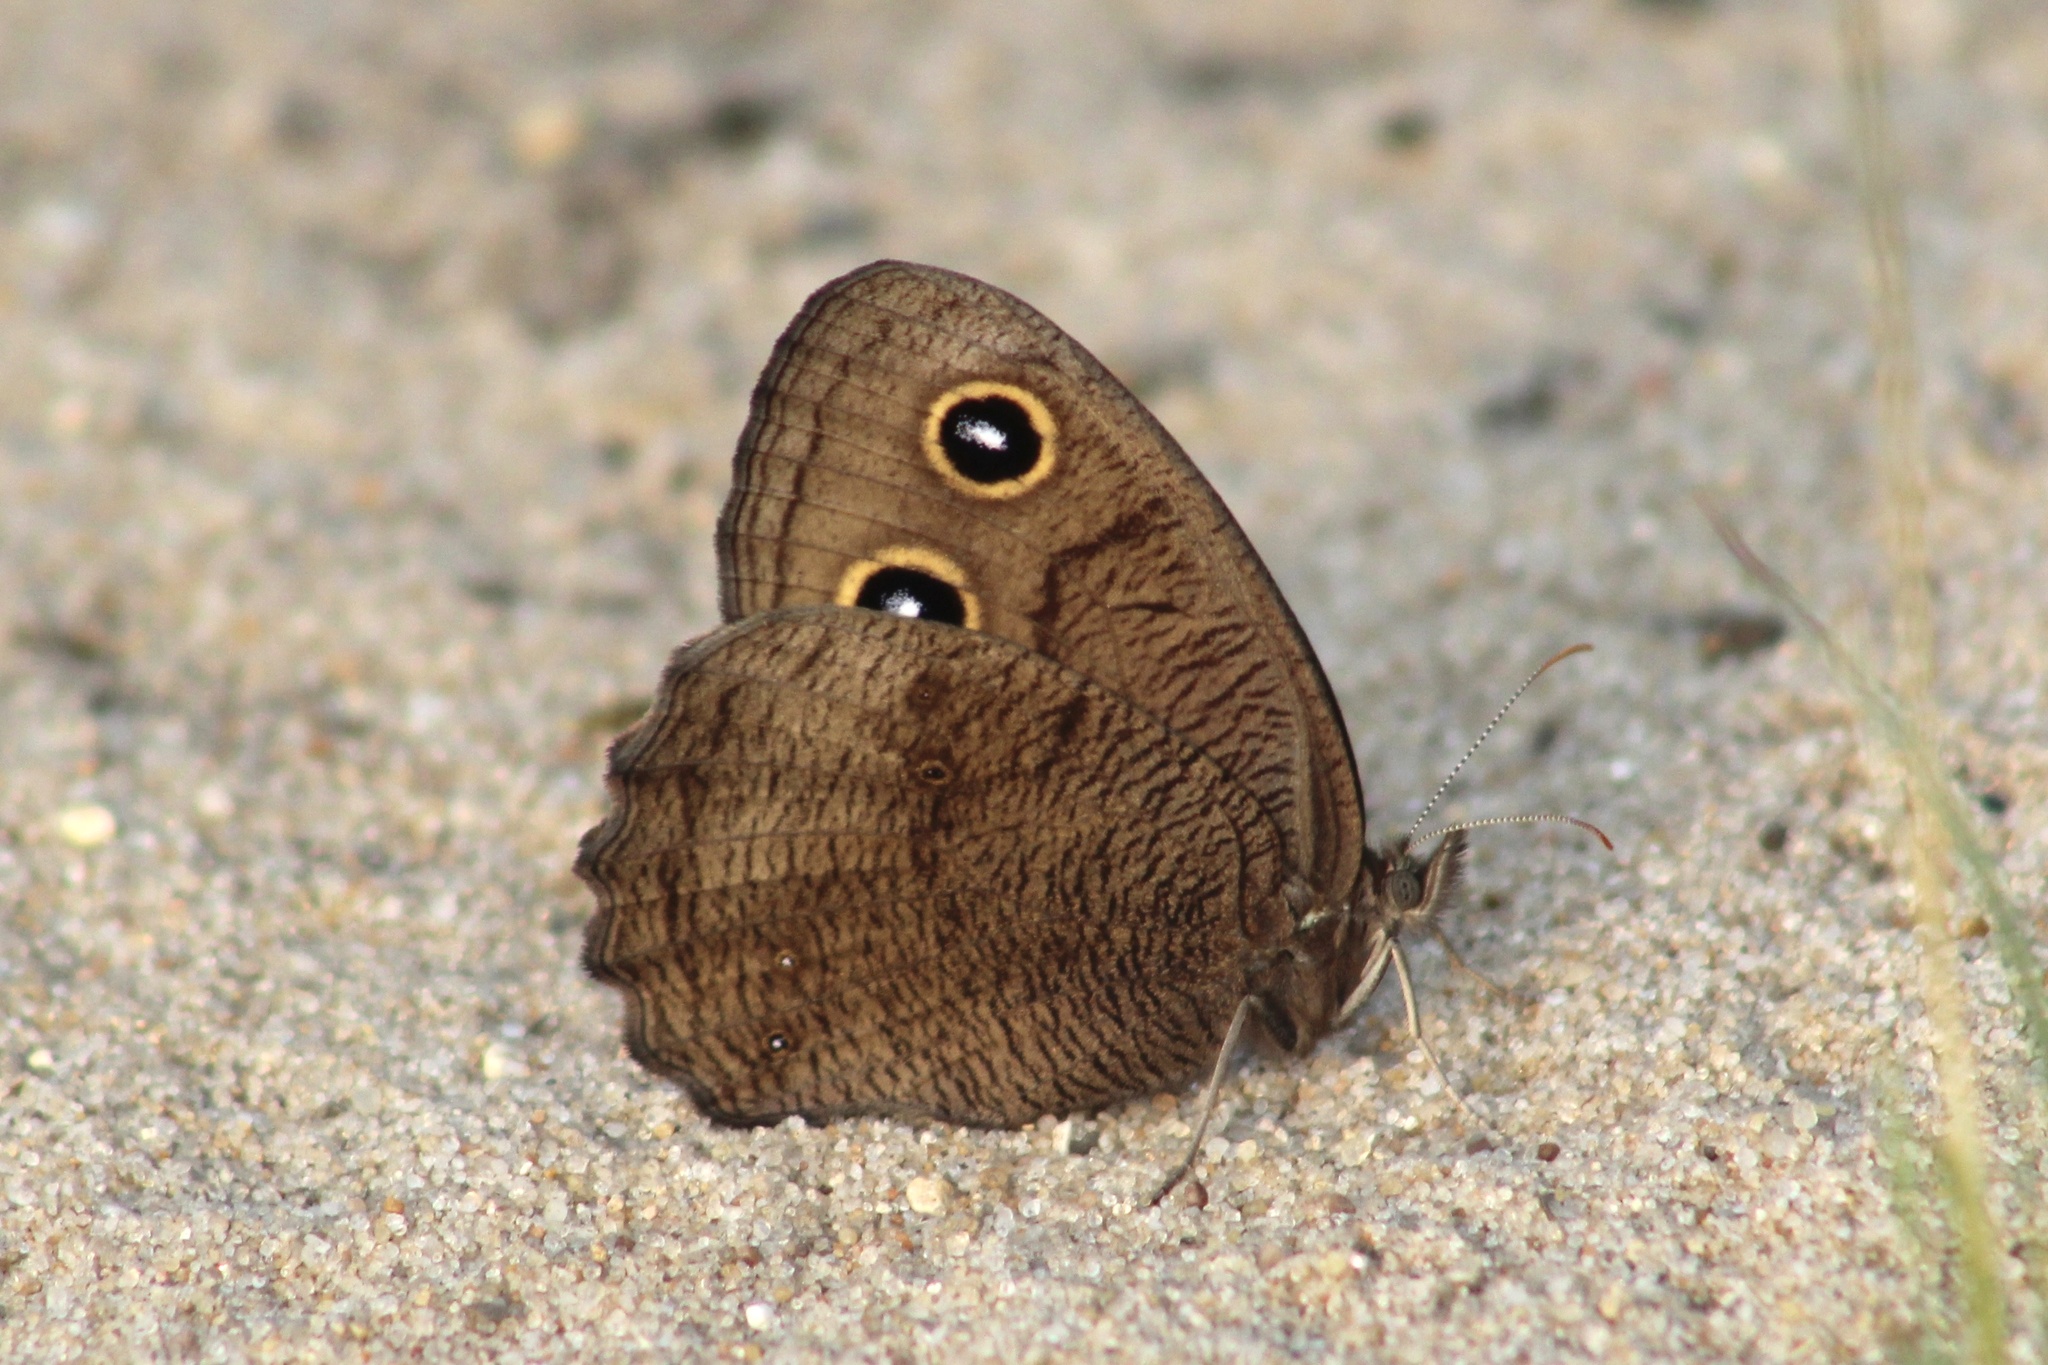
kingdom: Animalia
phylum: Arthropoda
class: Insecta
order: Lepidoptera
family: Nymphalidae
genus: Cercyonis
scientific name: Cercyonis pegala
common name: Common wood-nymph
